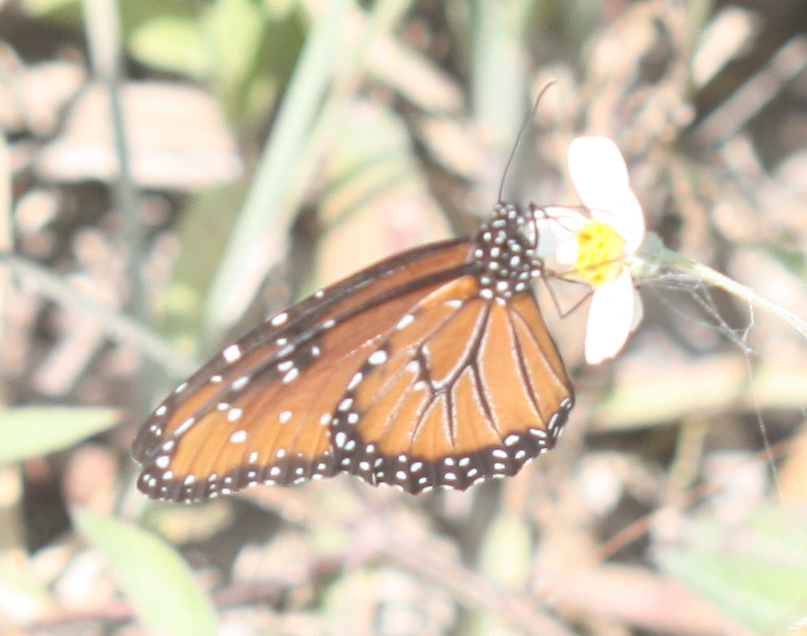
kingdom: Animalia
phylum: Arthropoda
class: Insecta
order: Lepidoptera
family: Nymphalidae
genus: Danaus
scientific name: Danaus gilippus
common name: Queen
